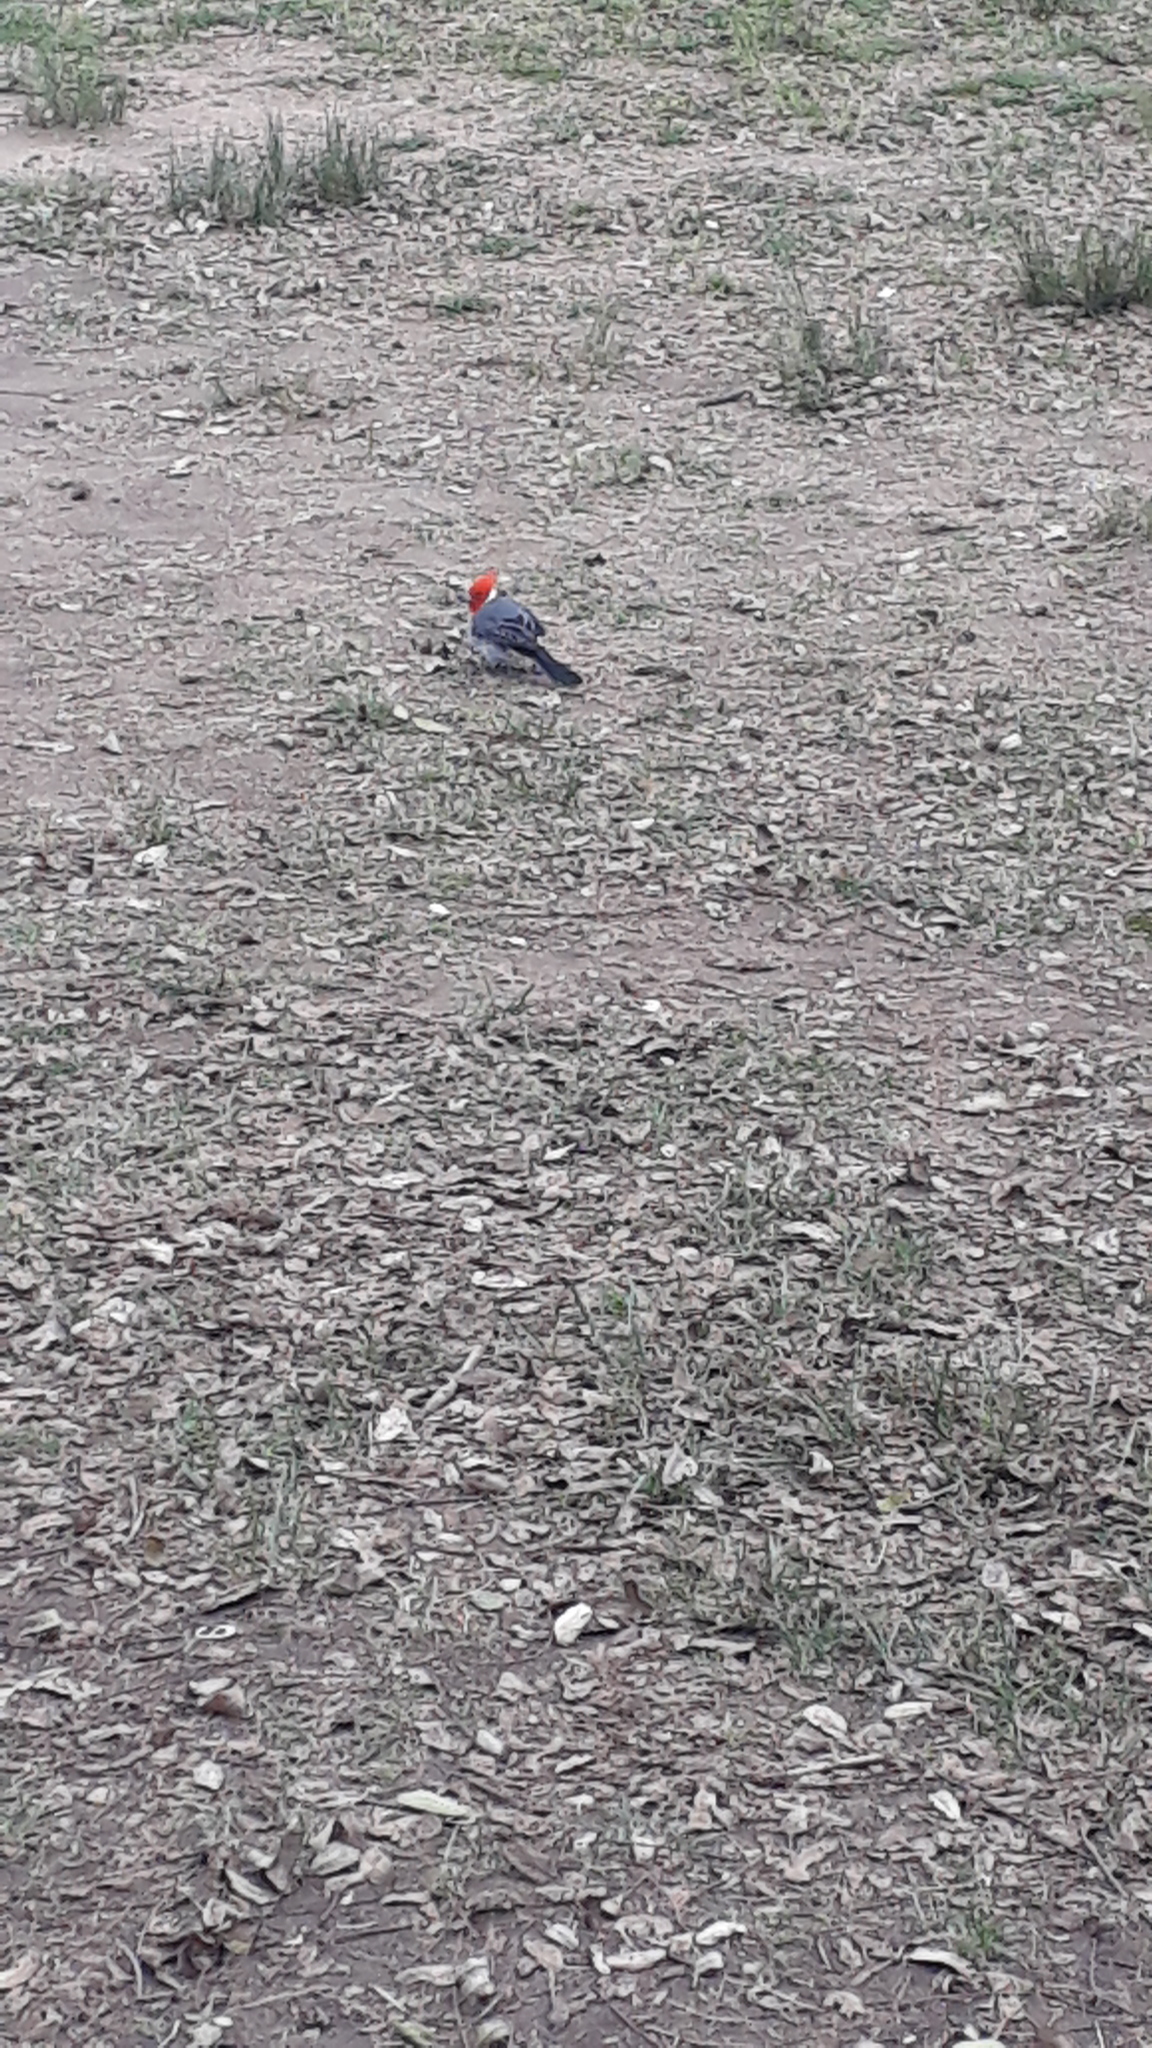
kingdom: Animalia
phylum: Chordata
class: Aves
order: Passeriformes
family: Thraupidae
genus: Paroaria
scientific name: Paroaria coronata
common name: Red-crested cardinal
